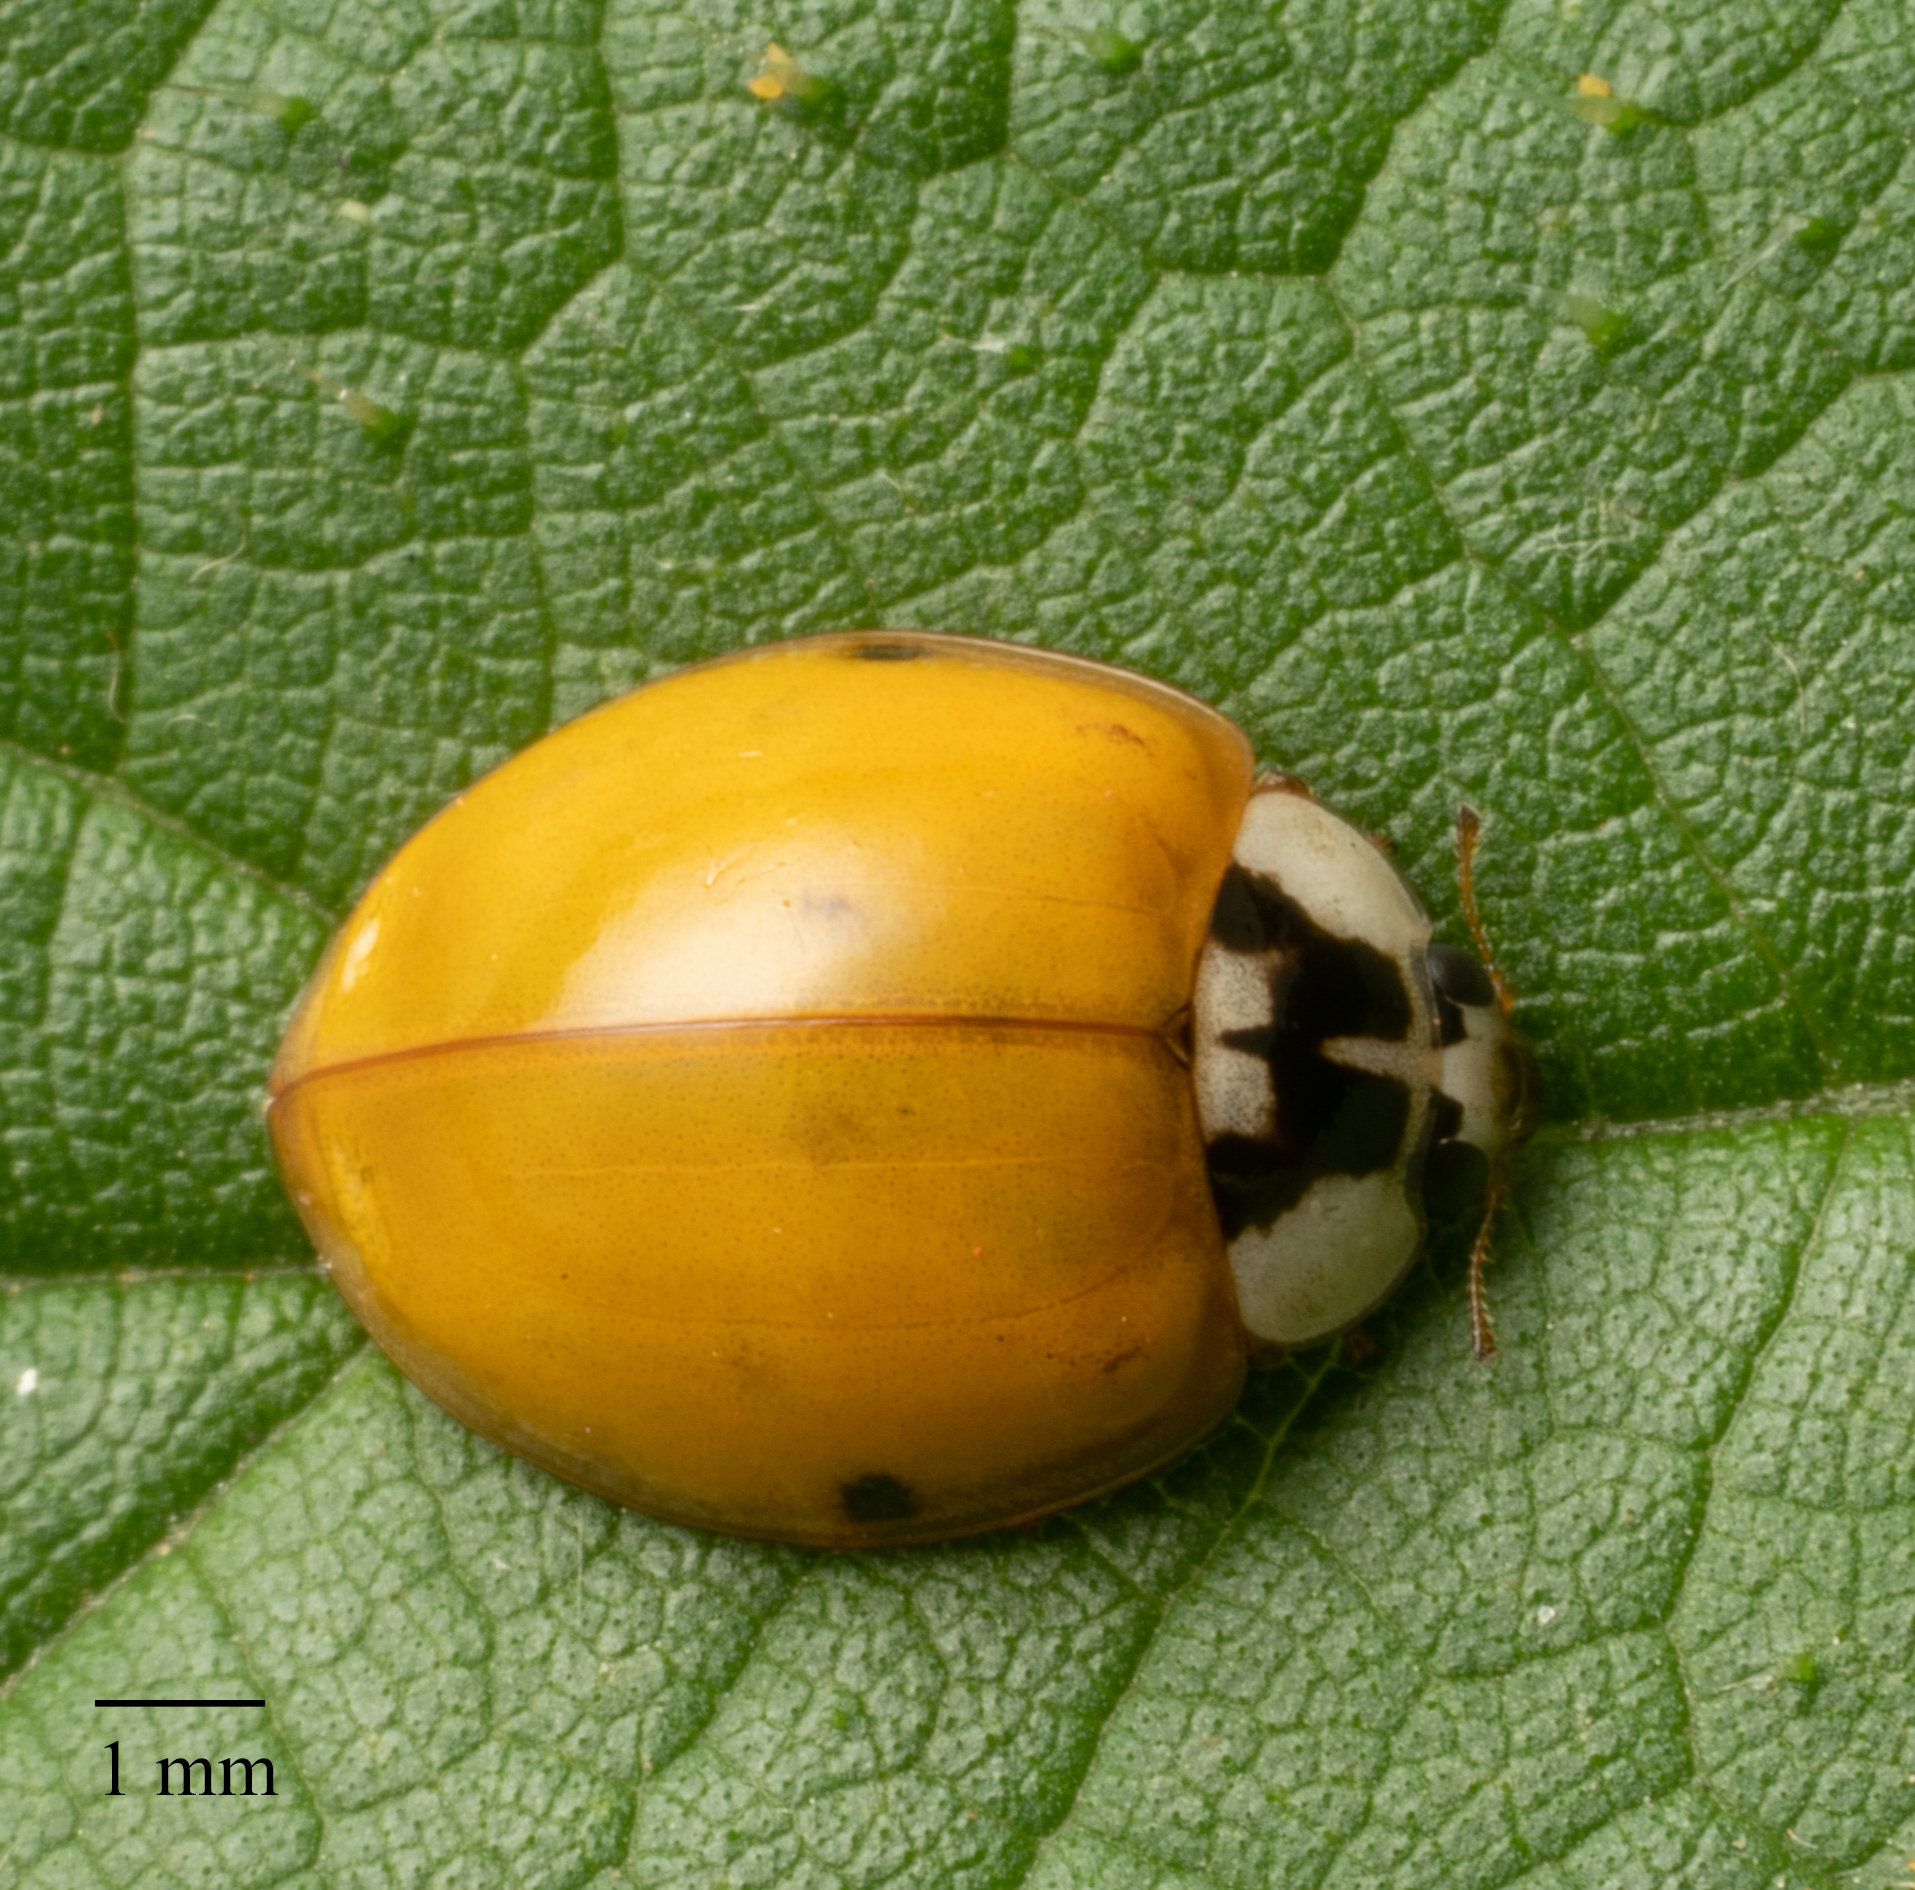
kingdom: Animalia
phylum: Arthropoda
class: Insecta
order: Coleoptera
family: Coccinellidae
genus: Harmonia
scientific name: Harmonia axyridis
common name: Harlequin ladybird
